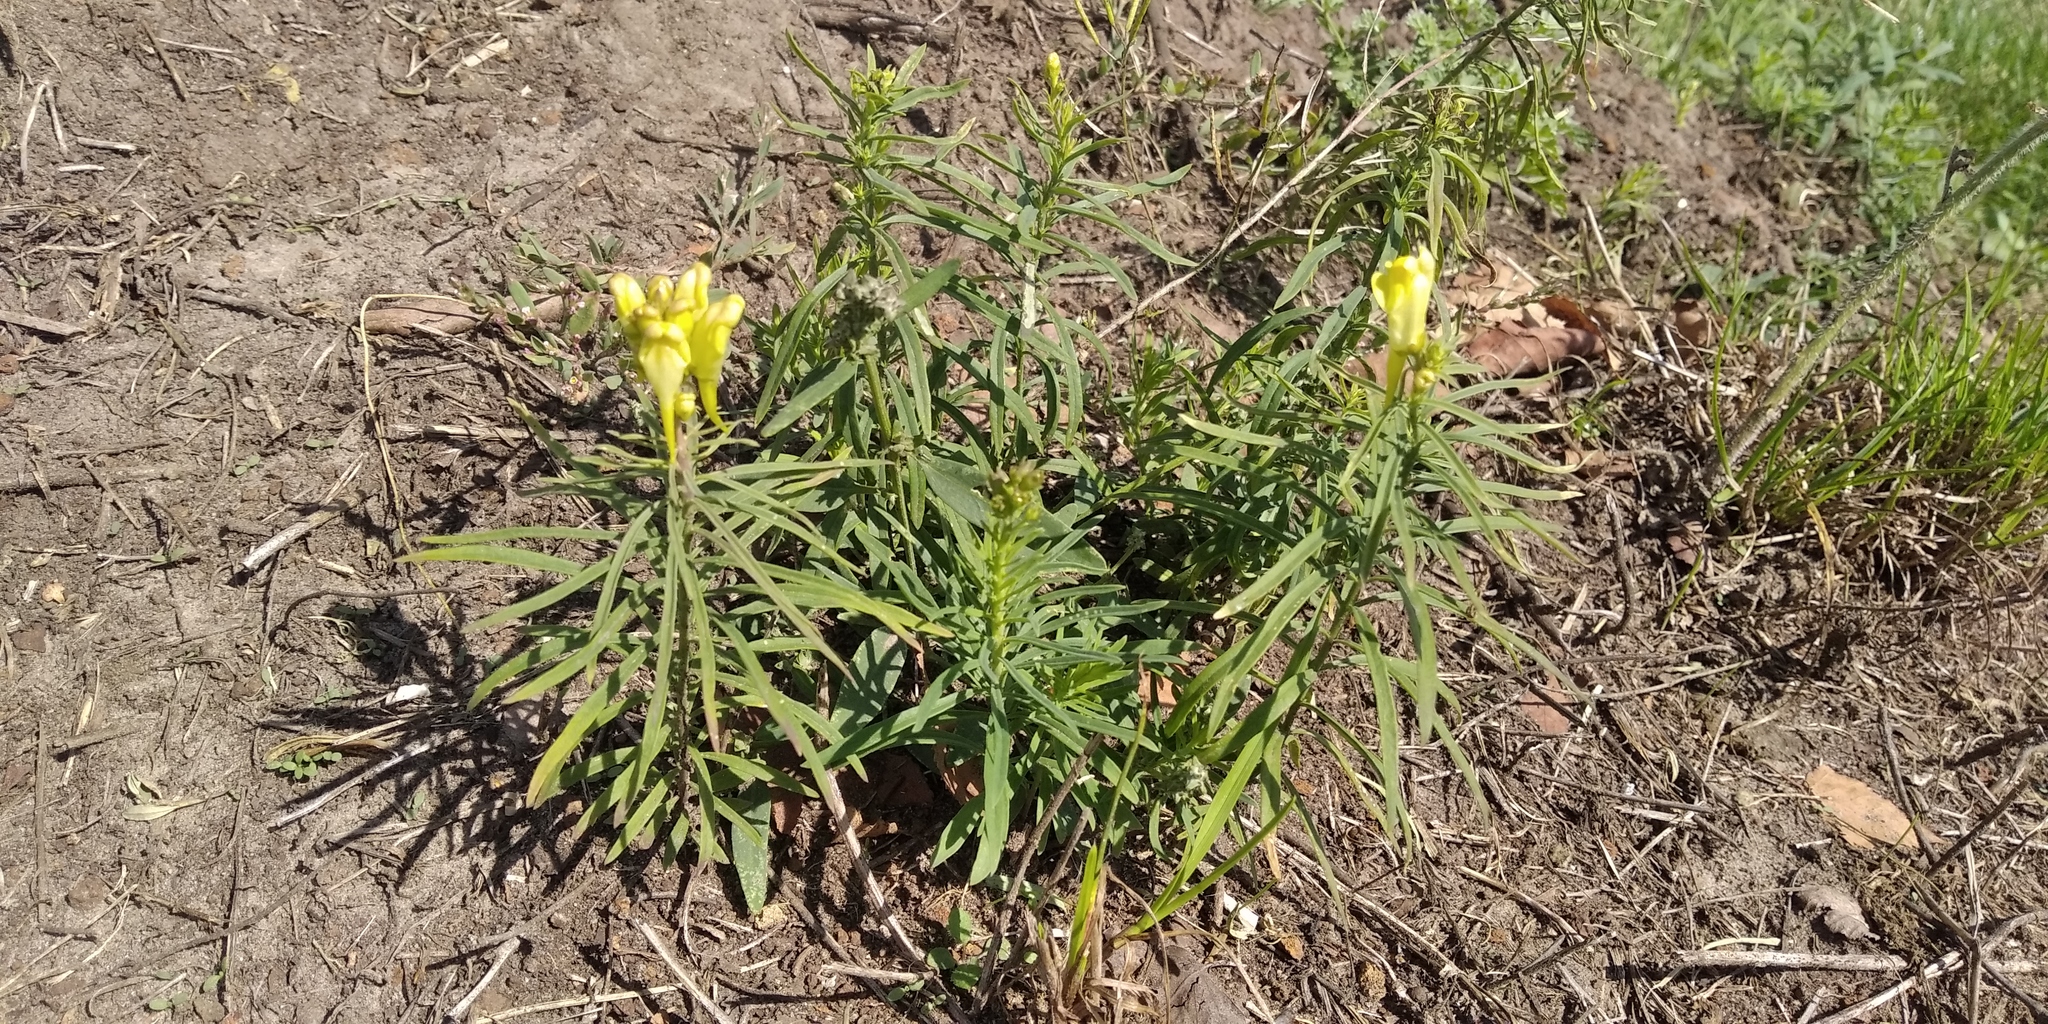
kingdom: Plantae
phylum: Tracheophyta
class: Magnoliopsida
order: Lamiales
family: Plantaginaceae
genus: Linaria
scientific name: Linaria vulgaris
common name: Butter and eggs
